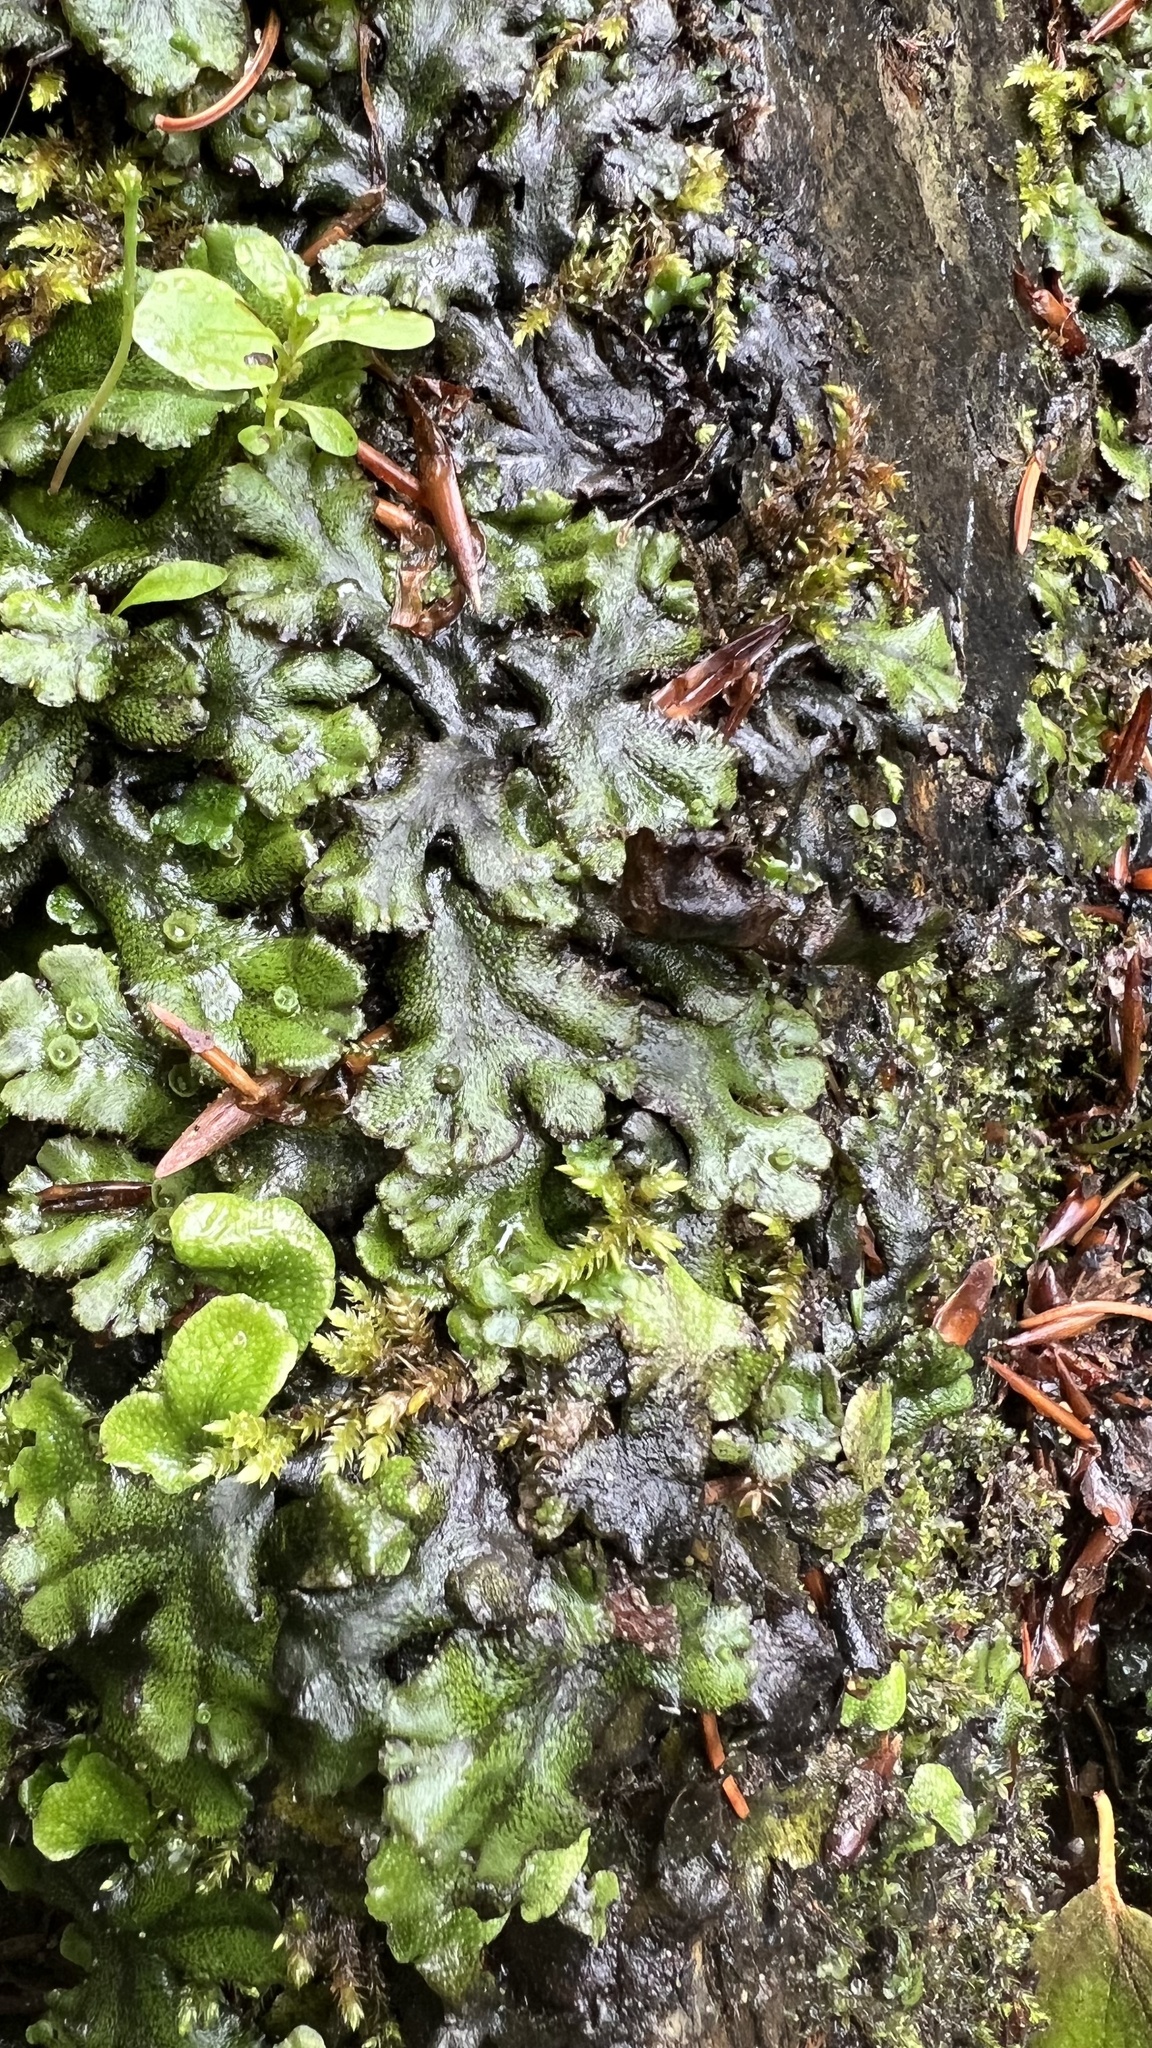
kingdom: Plantae
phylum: Marchantiophyta
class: Marchantiopsida
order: Marchantiales
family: Marchantiaceae
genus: Marchantia
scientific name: Marchantia polymorpha
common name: Common liverwort
